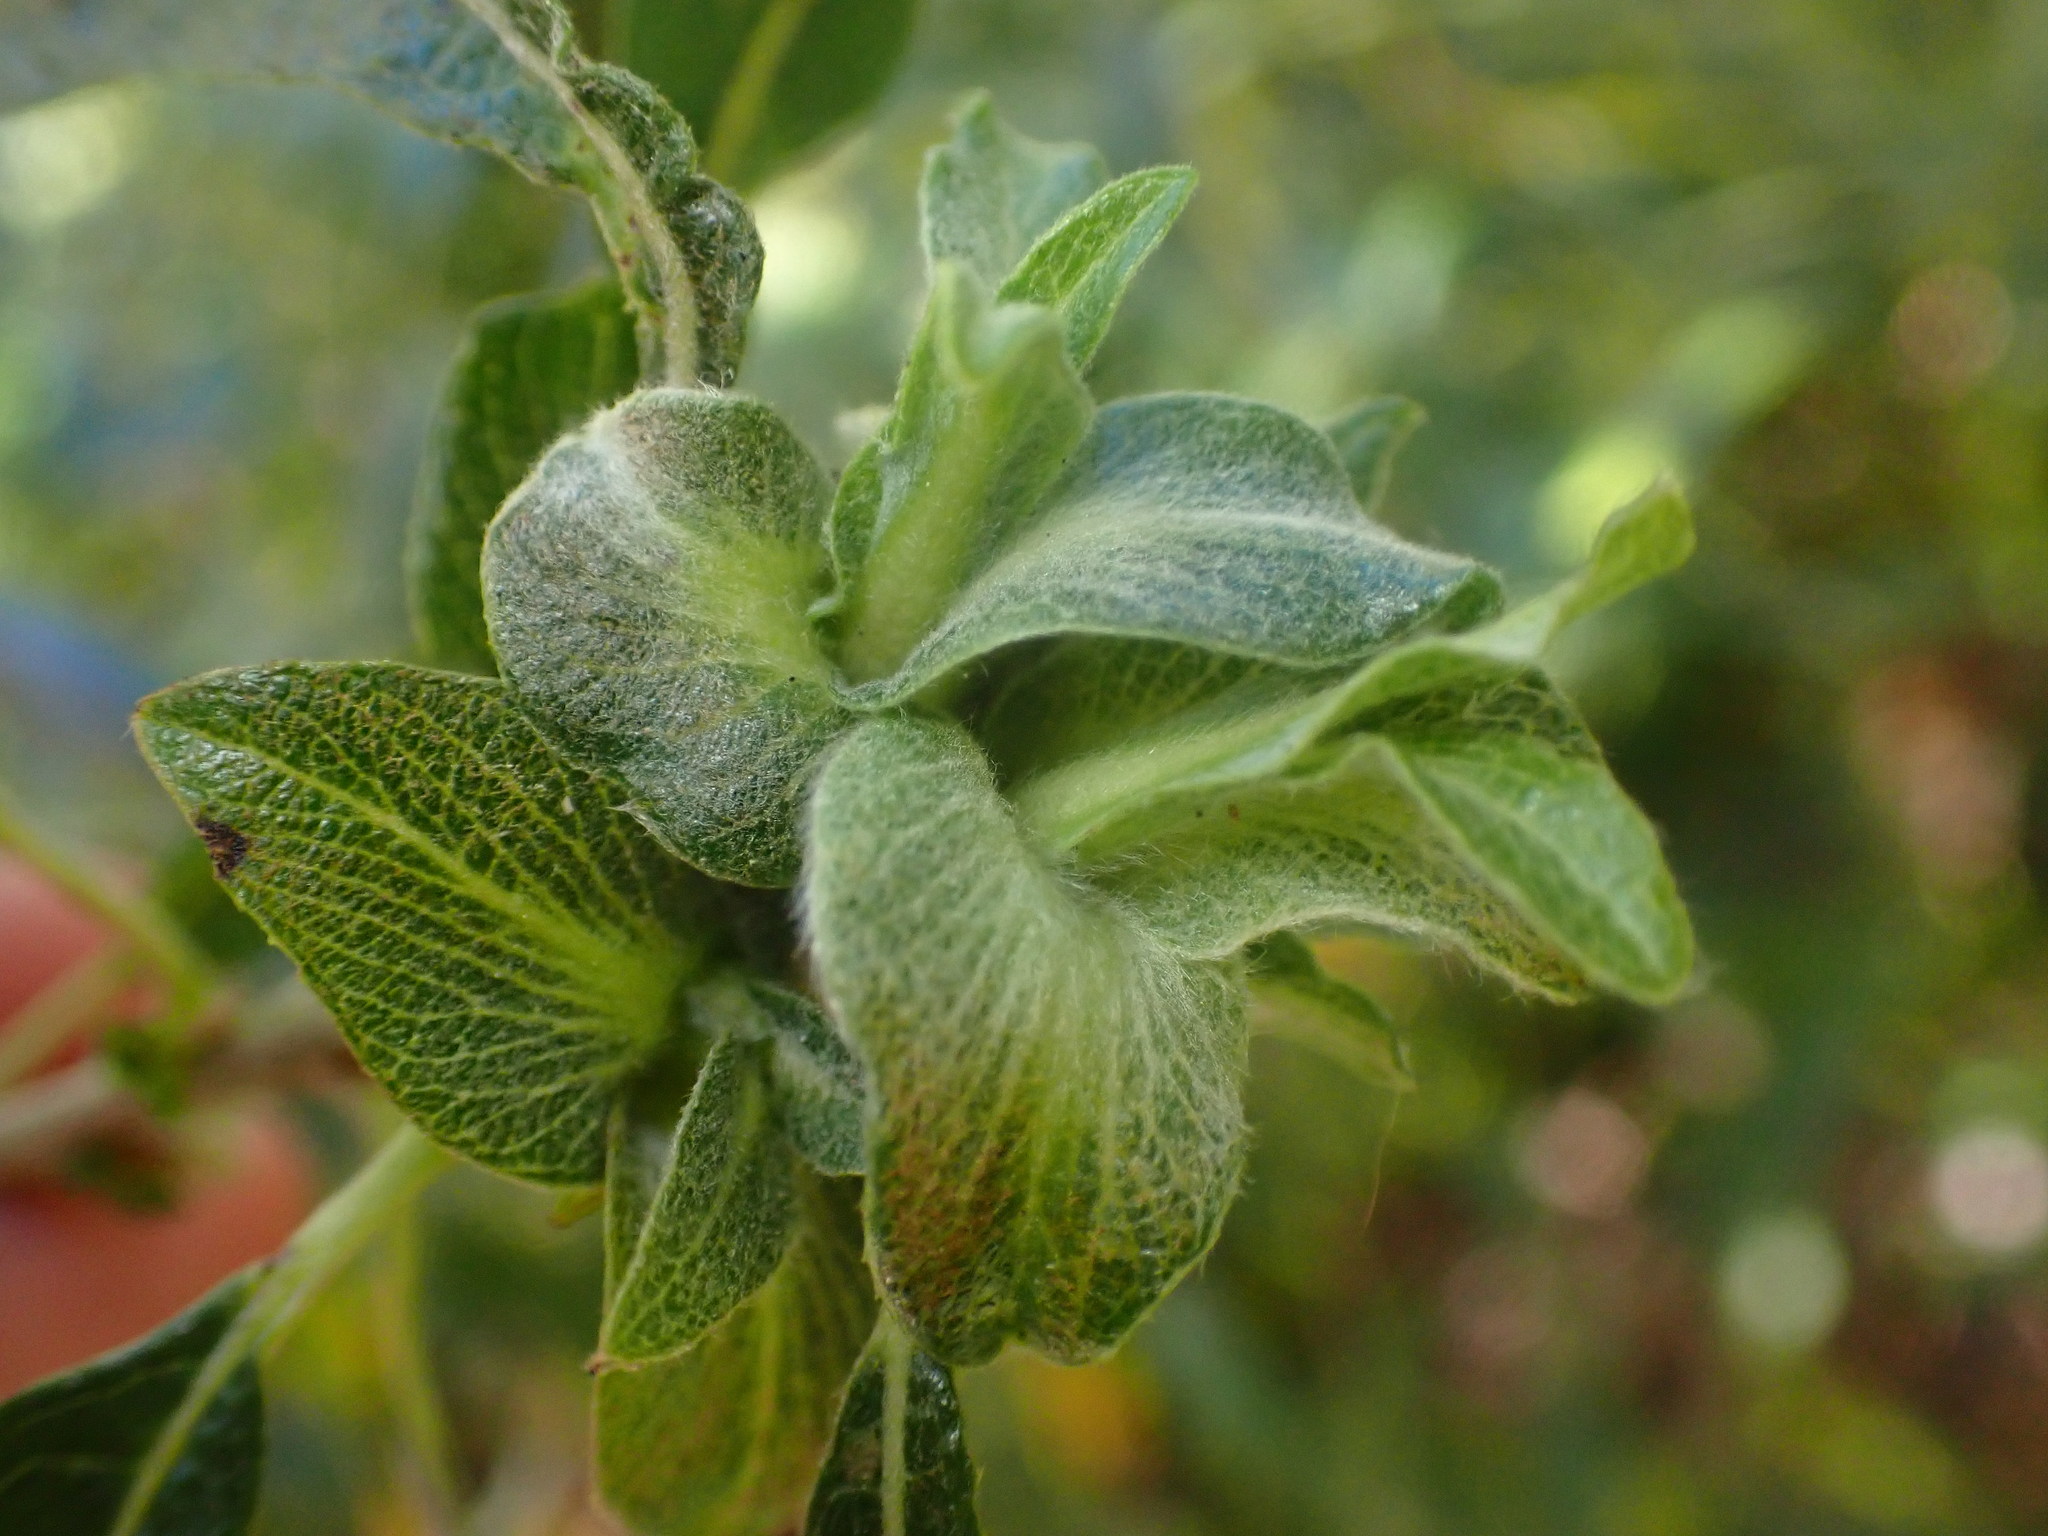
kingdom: Animalia
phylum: Arthropoda
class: Insecta
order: Diptera
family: Cecidomyiidae
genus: Rabdophaga
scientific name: Rabdophaga salicisbrassicoides
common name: Willow cabbagegall midge
